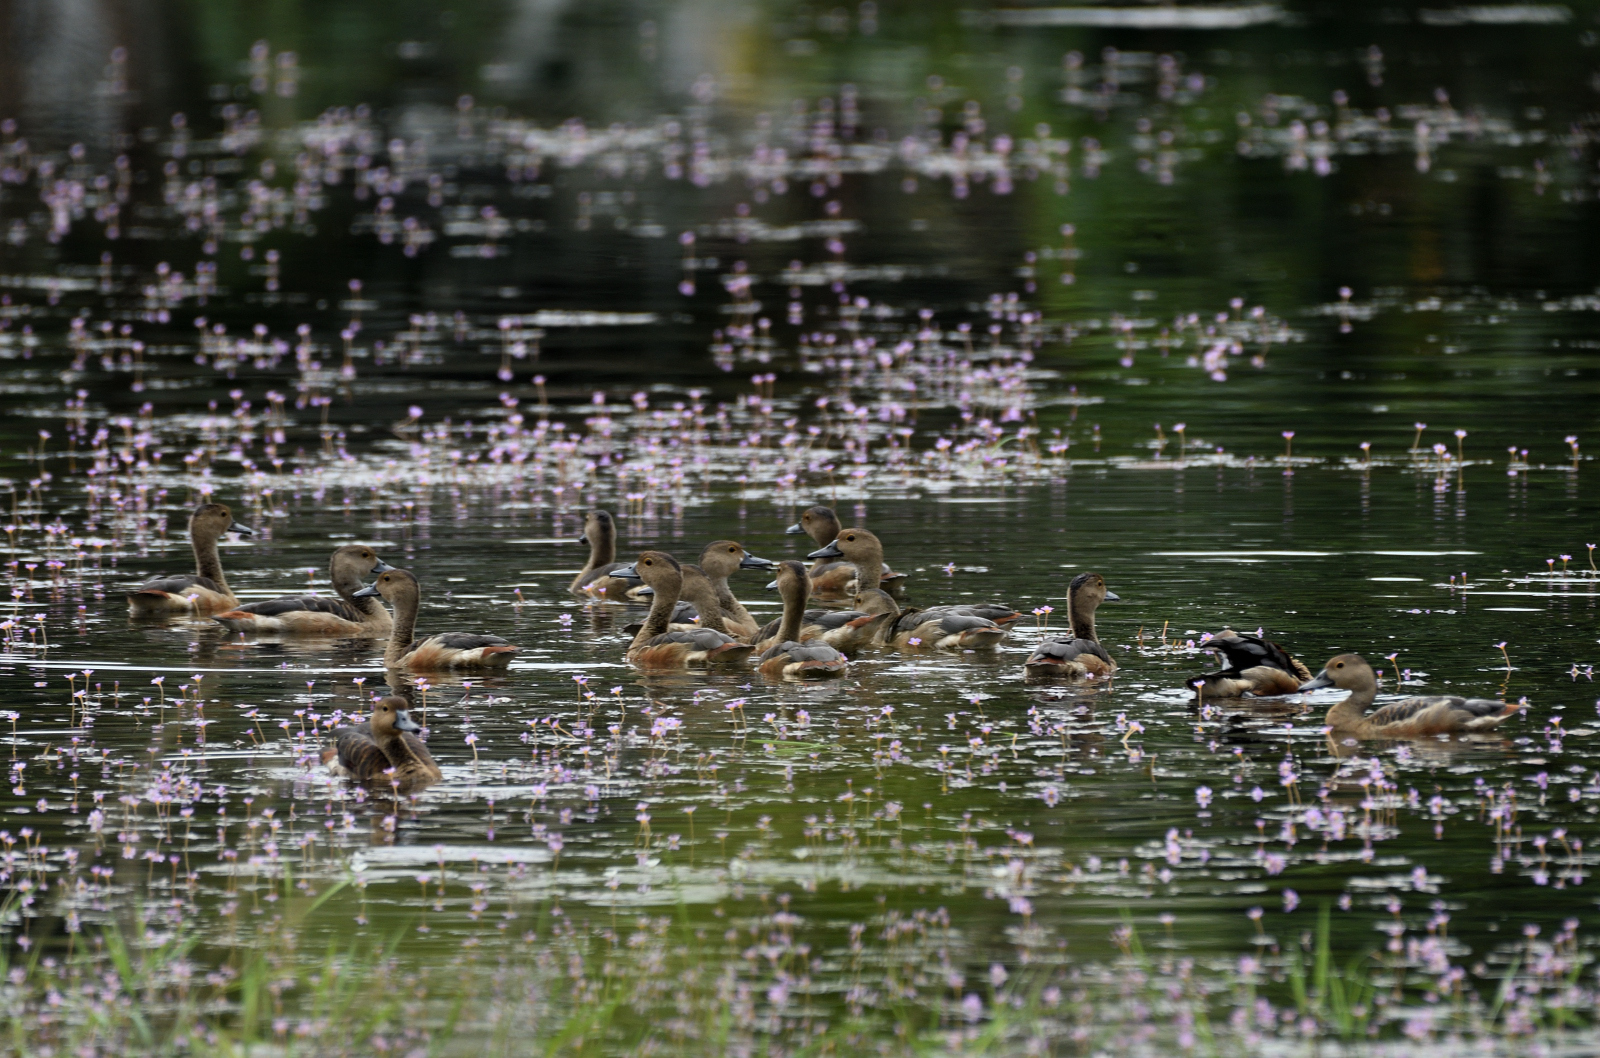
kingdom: Animalia
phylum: Chordata
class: Aves
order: Anseriformes
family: Anatidae
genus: Dendrocygna
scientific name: Dendrocygna javanica
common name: Lesser whistling-duck
